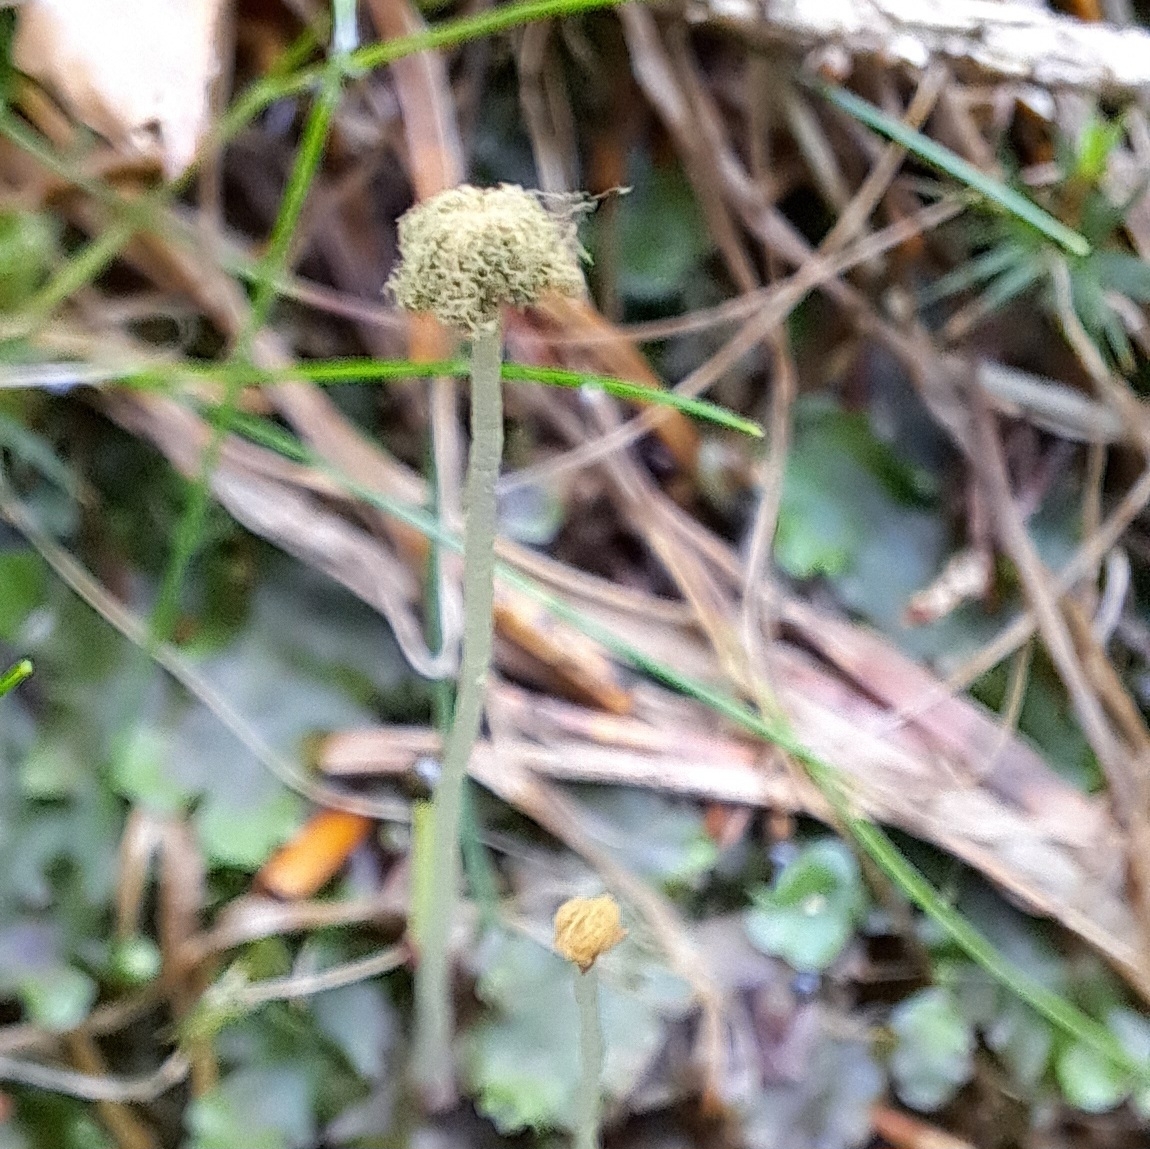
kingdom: Plantae
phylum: Marchantiophyta
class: Jungermanniopsida
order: Pelliales
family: Pelliaceae
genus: Pellia
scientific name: Pellia epiphylla
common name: Common pellia
